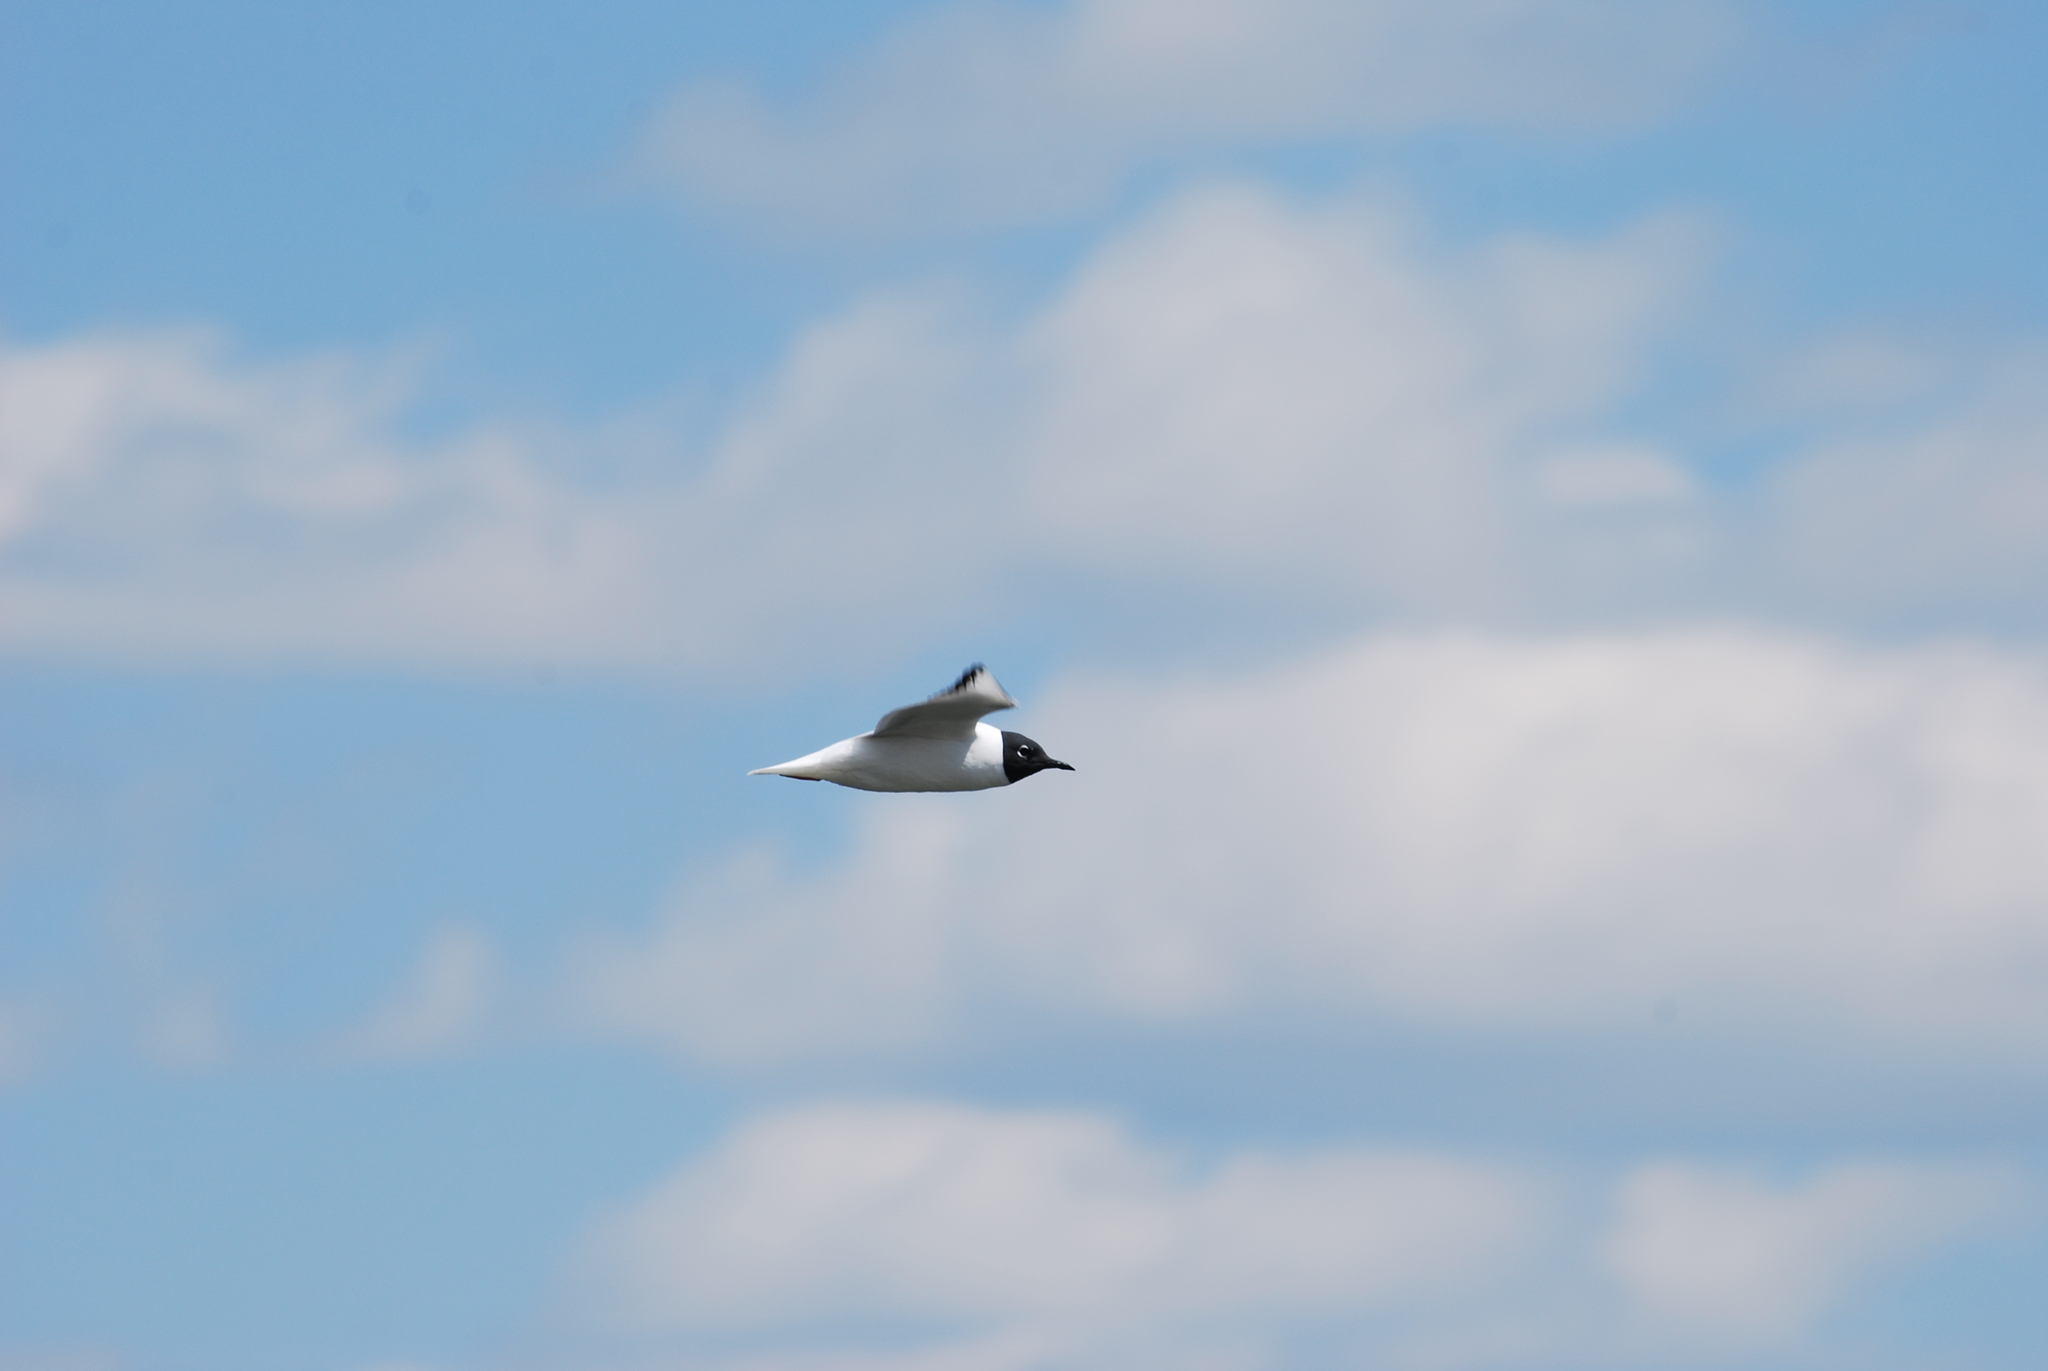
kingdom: Animalia
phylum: Chordata
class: Aves
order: Charadriiformes
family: Laridae
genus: Chroicocephalus
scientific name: Chroicocephalus philadelphia
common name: Bonaparte's gull
